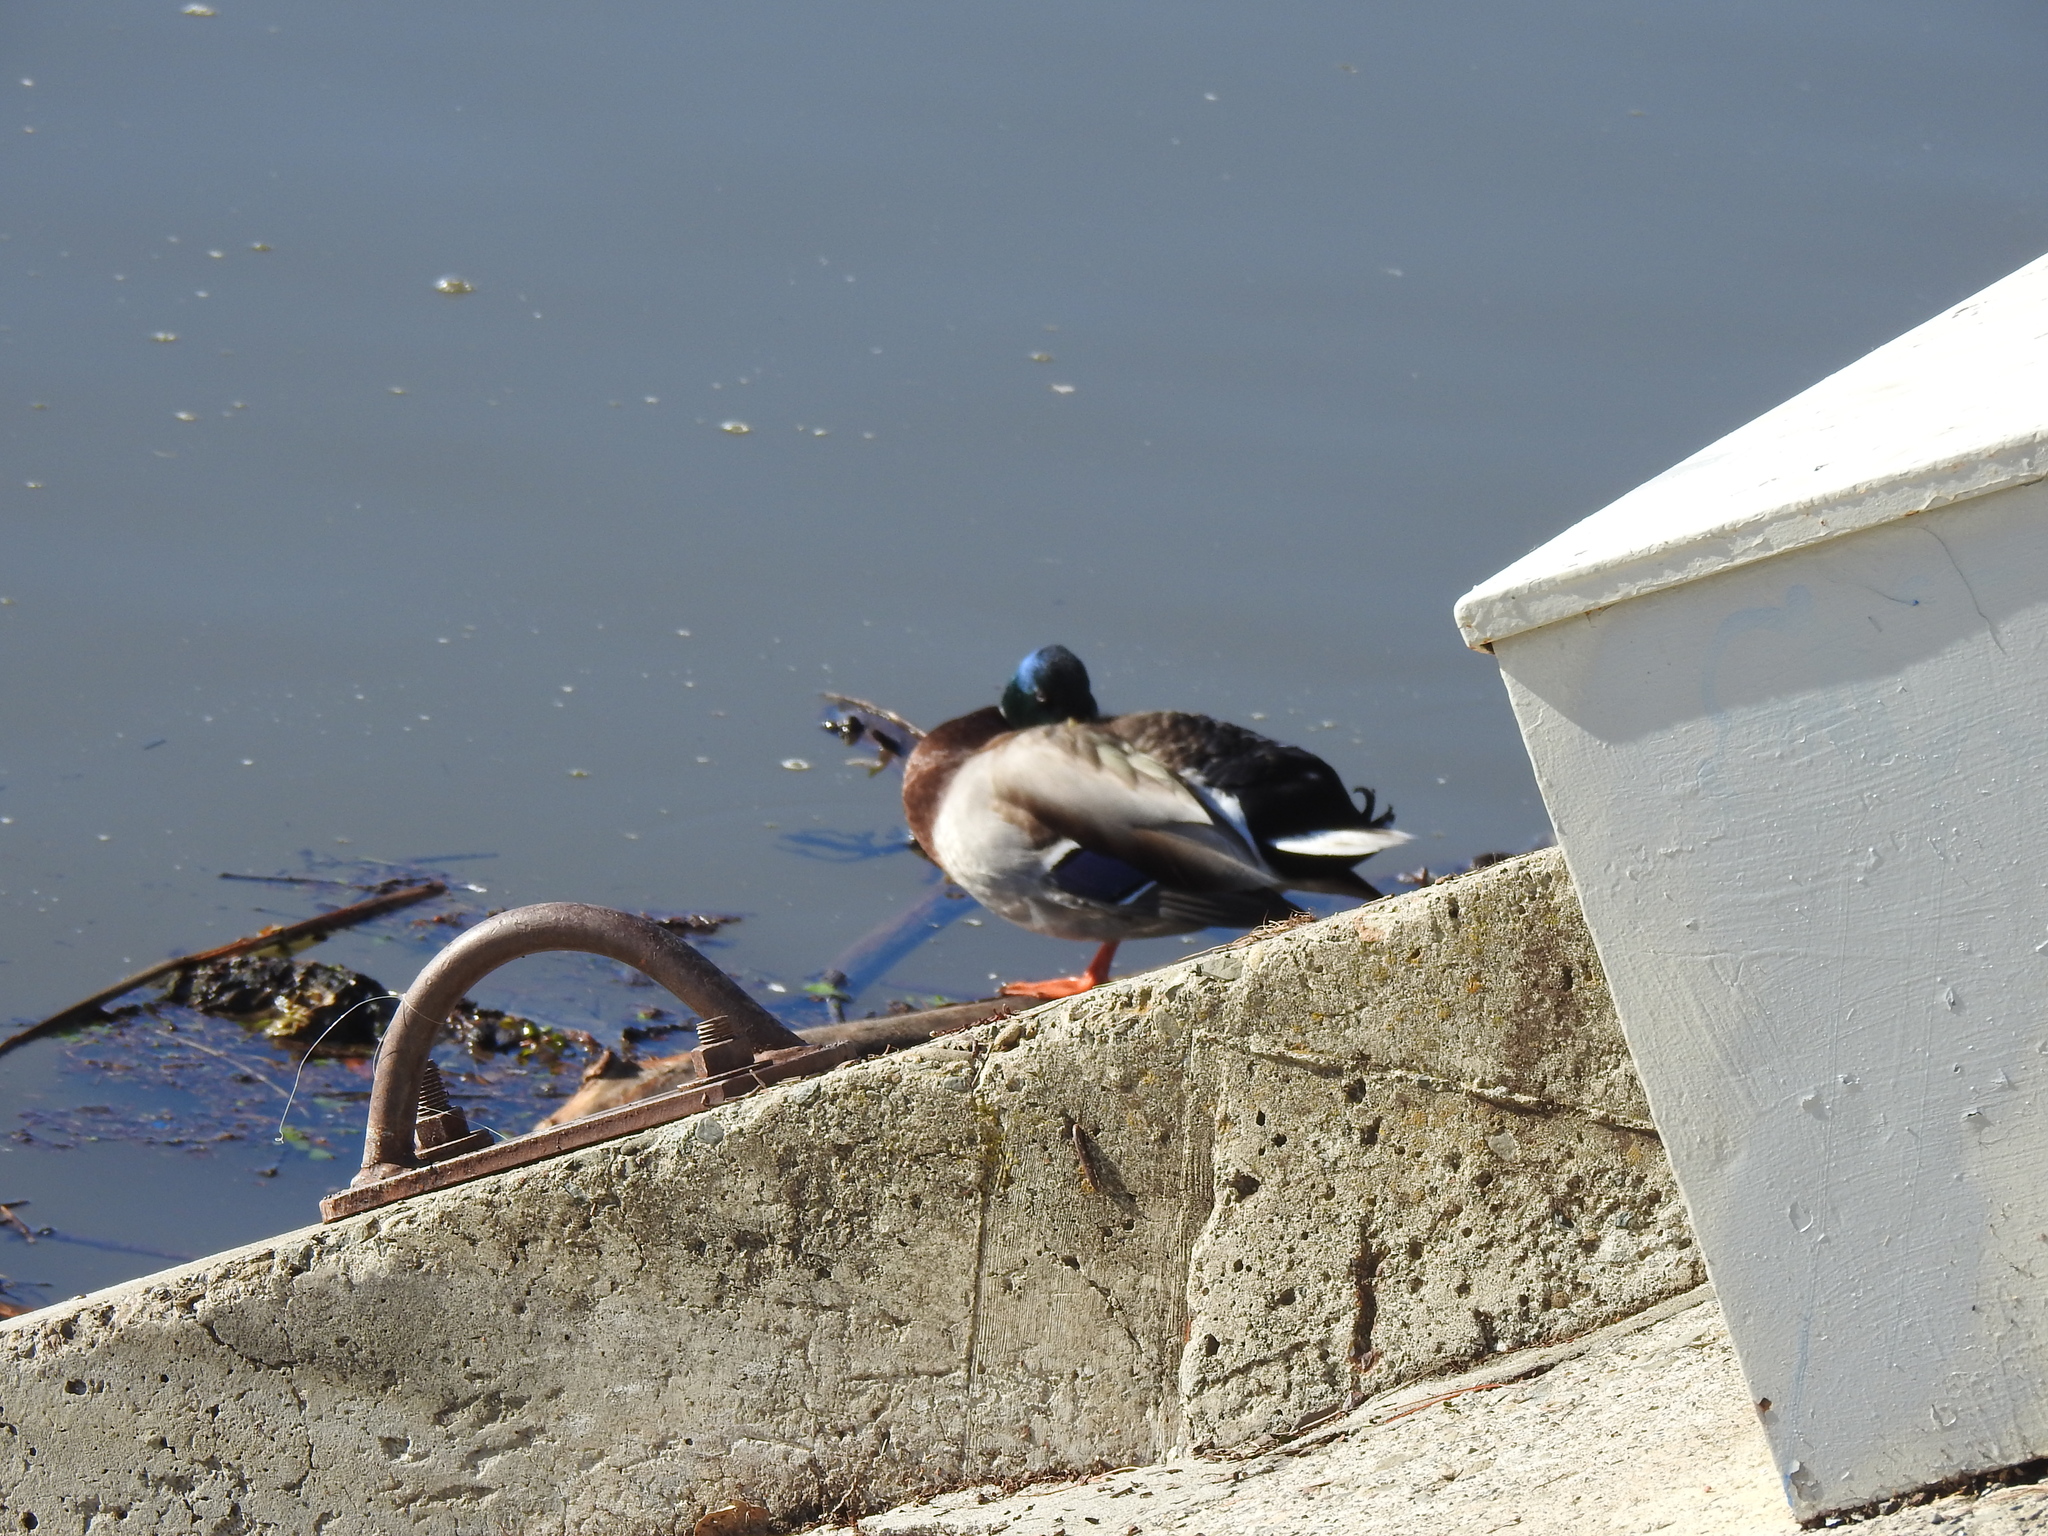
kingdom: Animalia
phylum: Chordata
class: Aves
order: Anseriformes
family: Anatidae
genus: Anas
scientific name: Anas platyrhynchos
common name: Mallard
